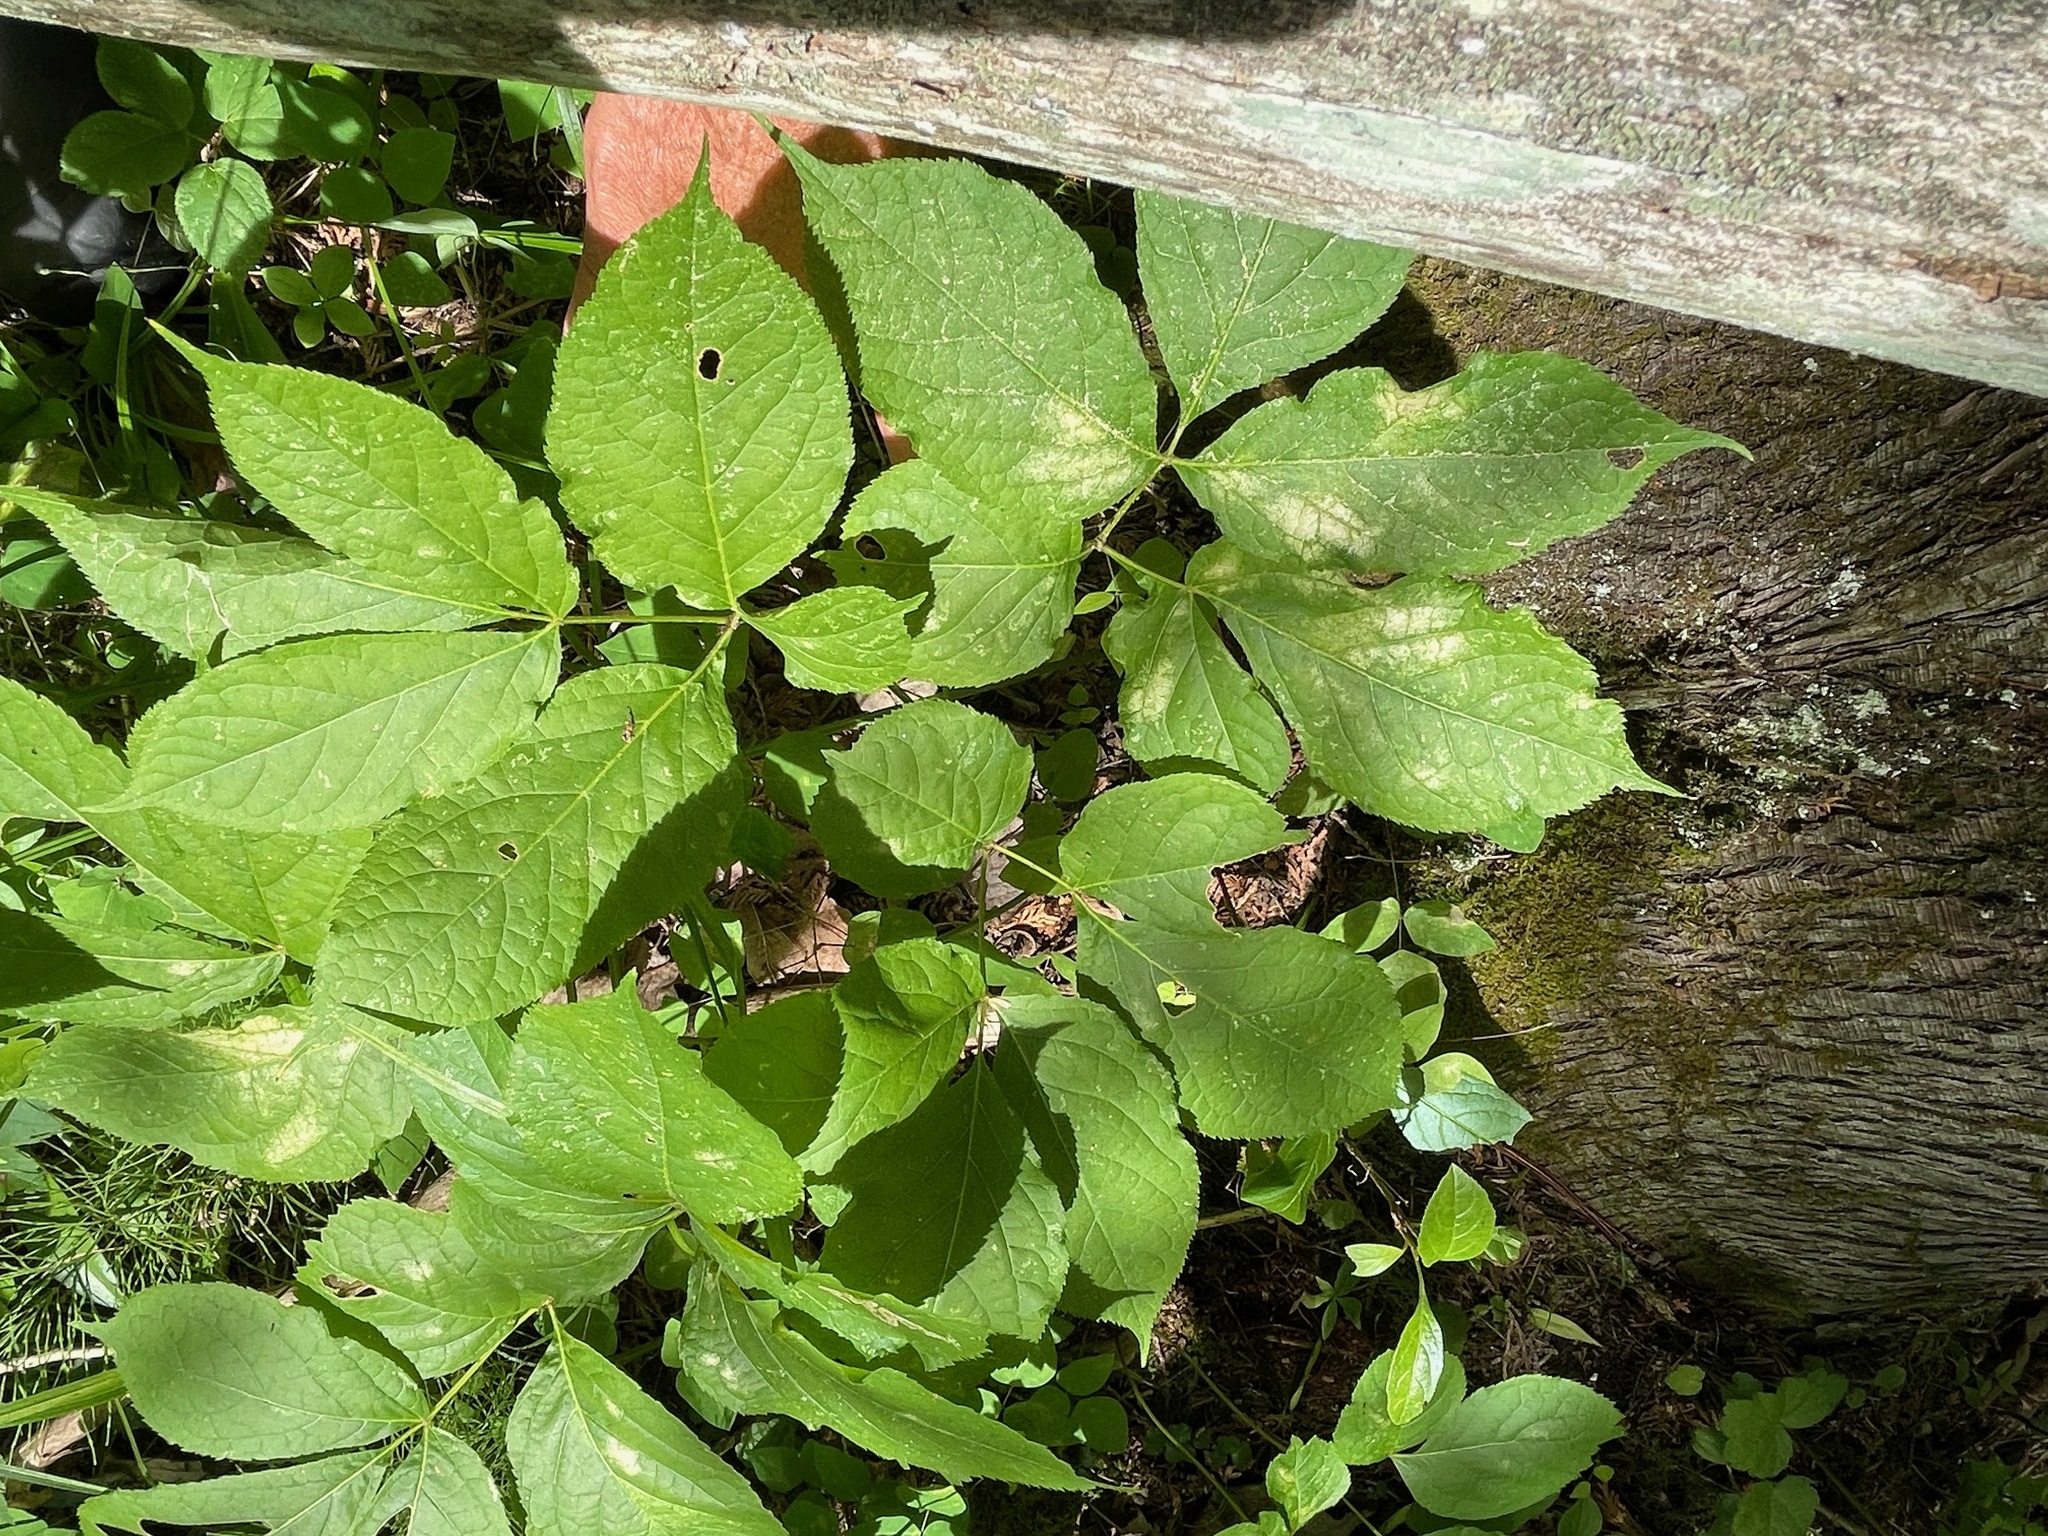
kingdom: Plantae
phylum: Tracheophyta
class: Magnoliopsida
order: Apiales
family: Araliaceae
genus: Aralia
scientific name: Aralia nudicaulis
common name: Wild sarsaparilla
